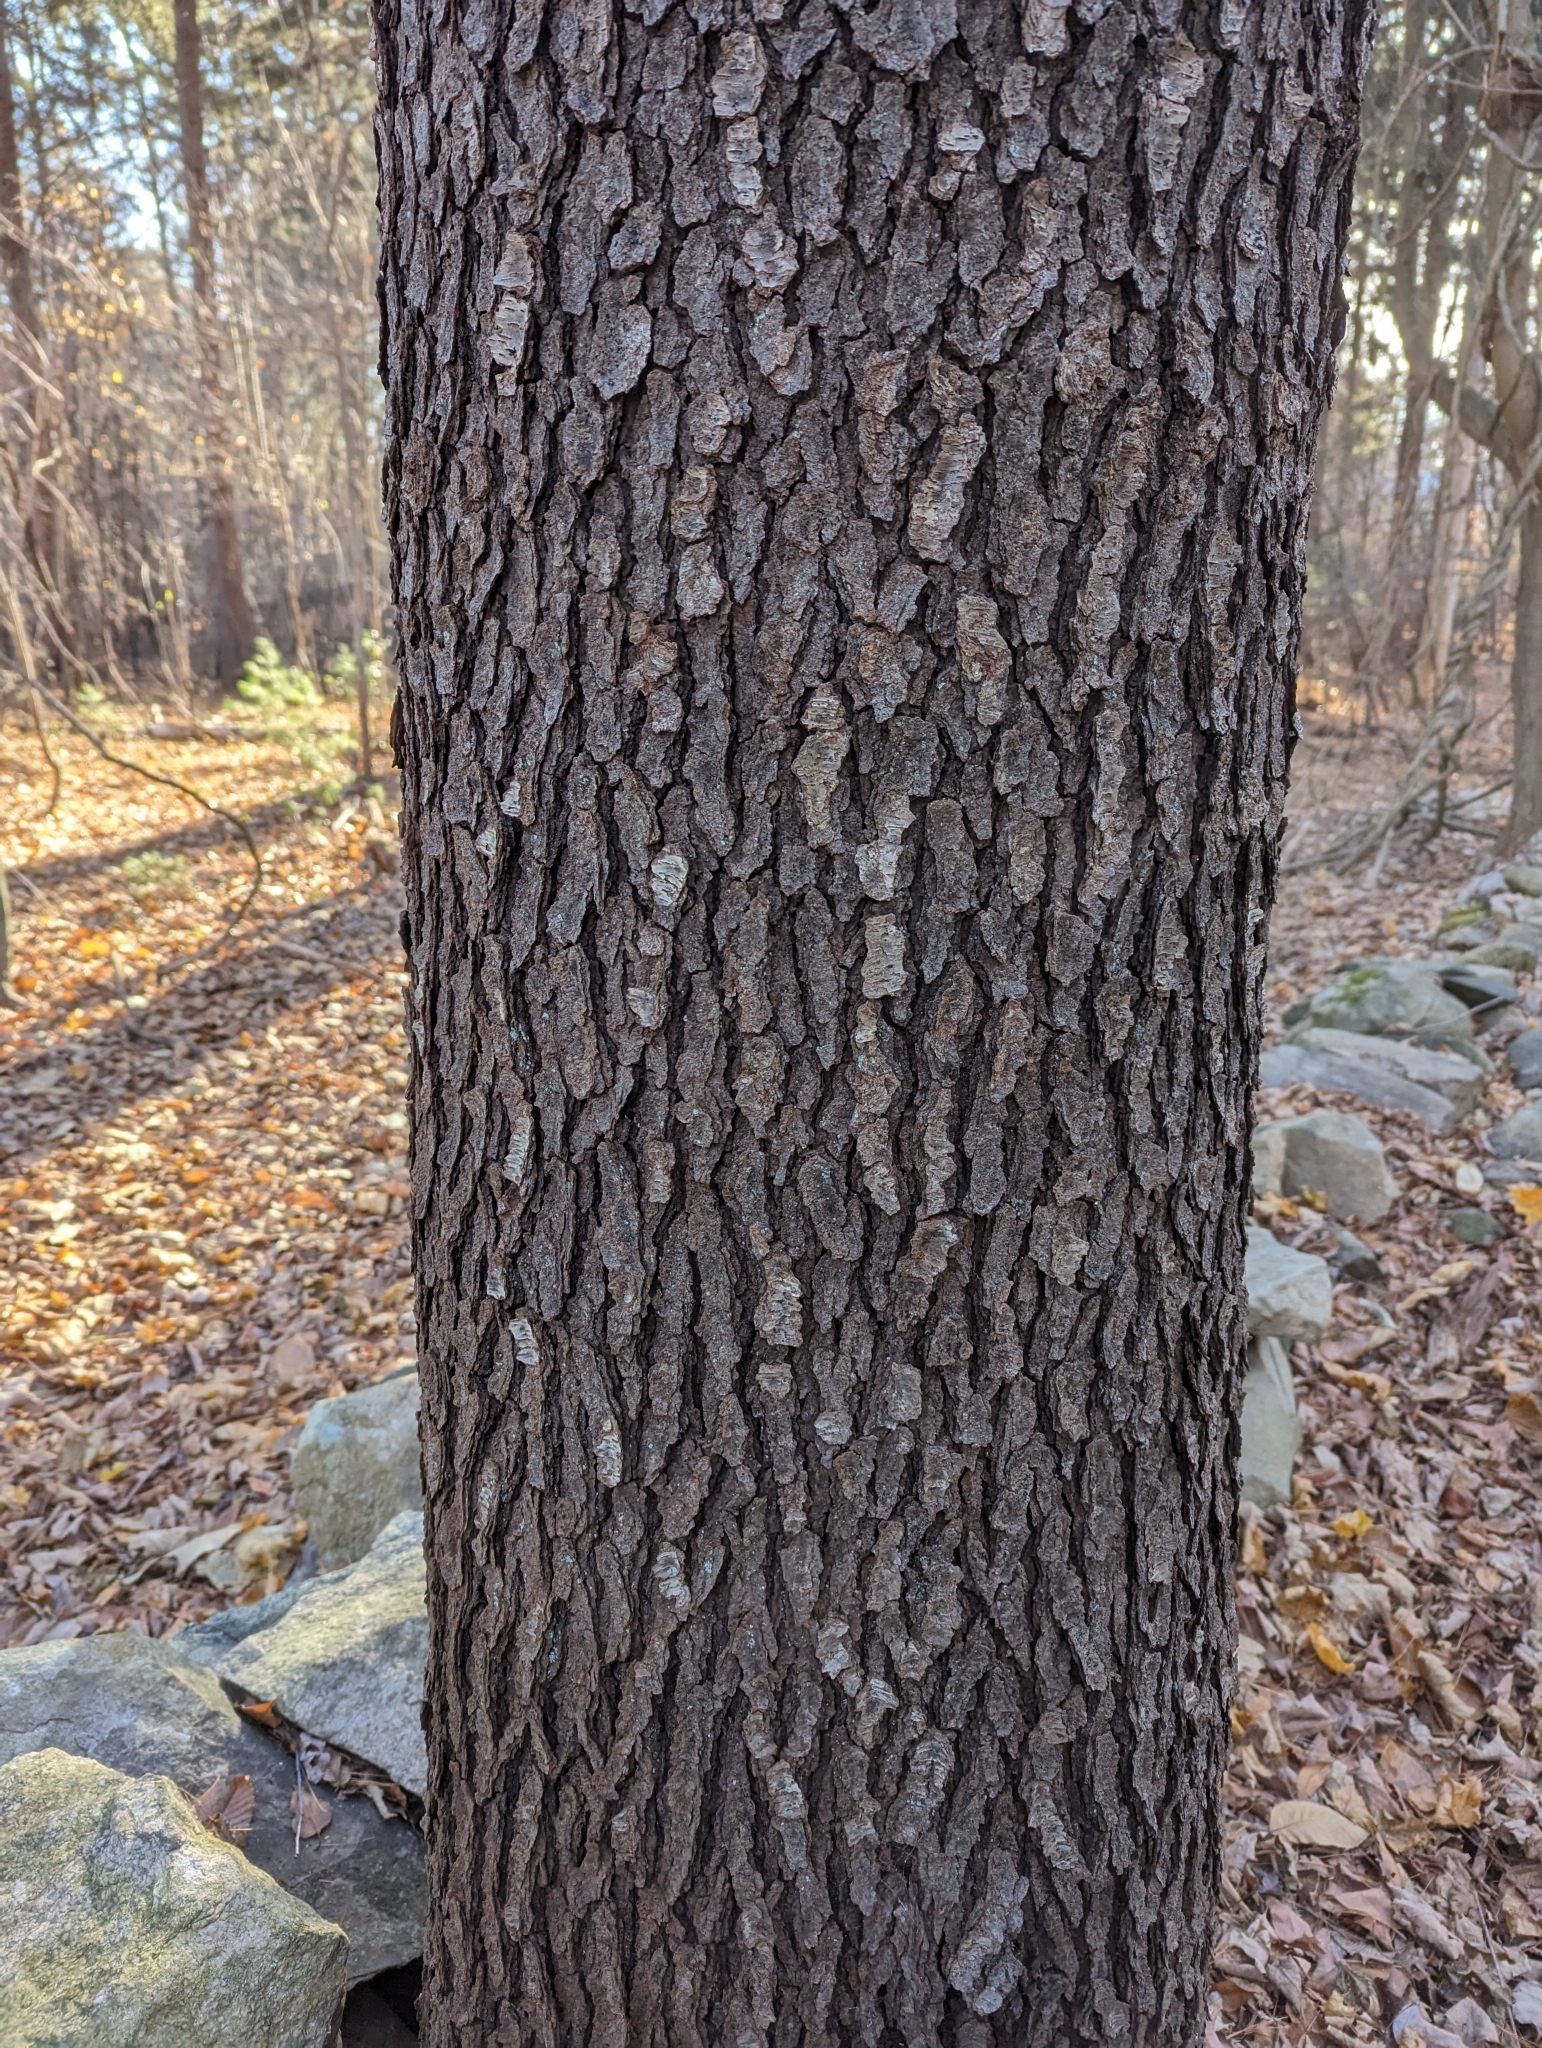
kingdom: Plantae
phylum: Tracheophyta
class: Magnoliopsida
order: Rosales
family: Rosaceae
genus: Prunus
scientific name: Prunus serotina
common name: Black cherry
